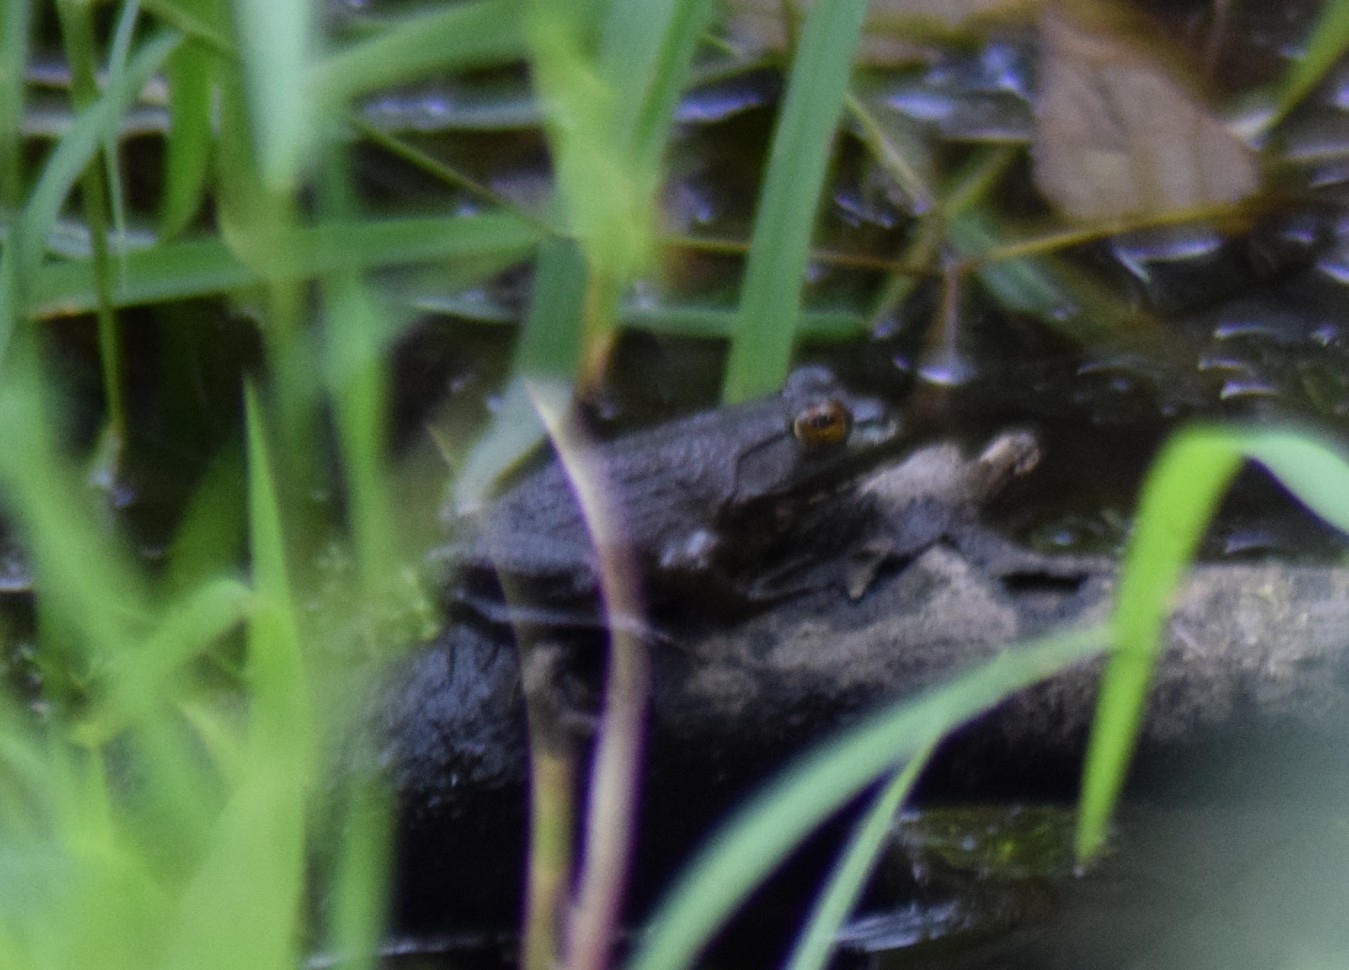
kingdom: Animalia
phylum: Chordata
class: Amphibia
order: Anura
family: Ranidae
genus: Lithobates
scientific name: Lithobates catesbeianus
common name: American bullfrog
